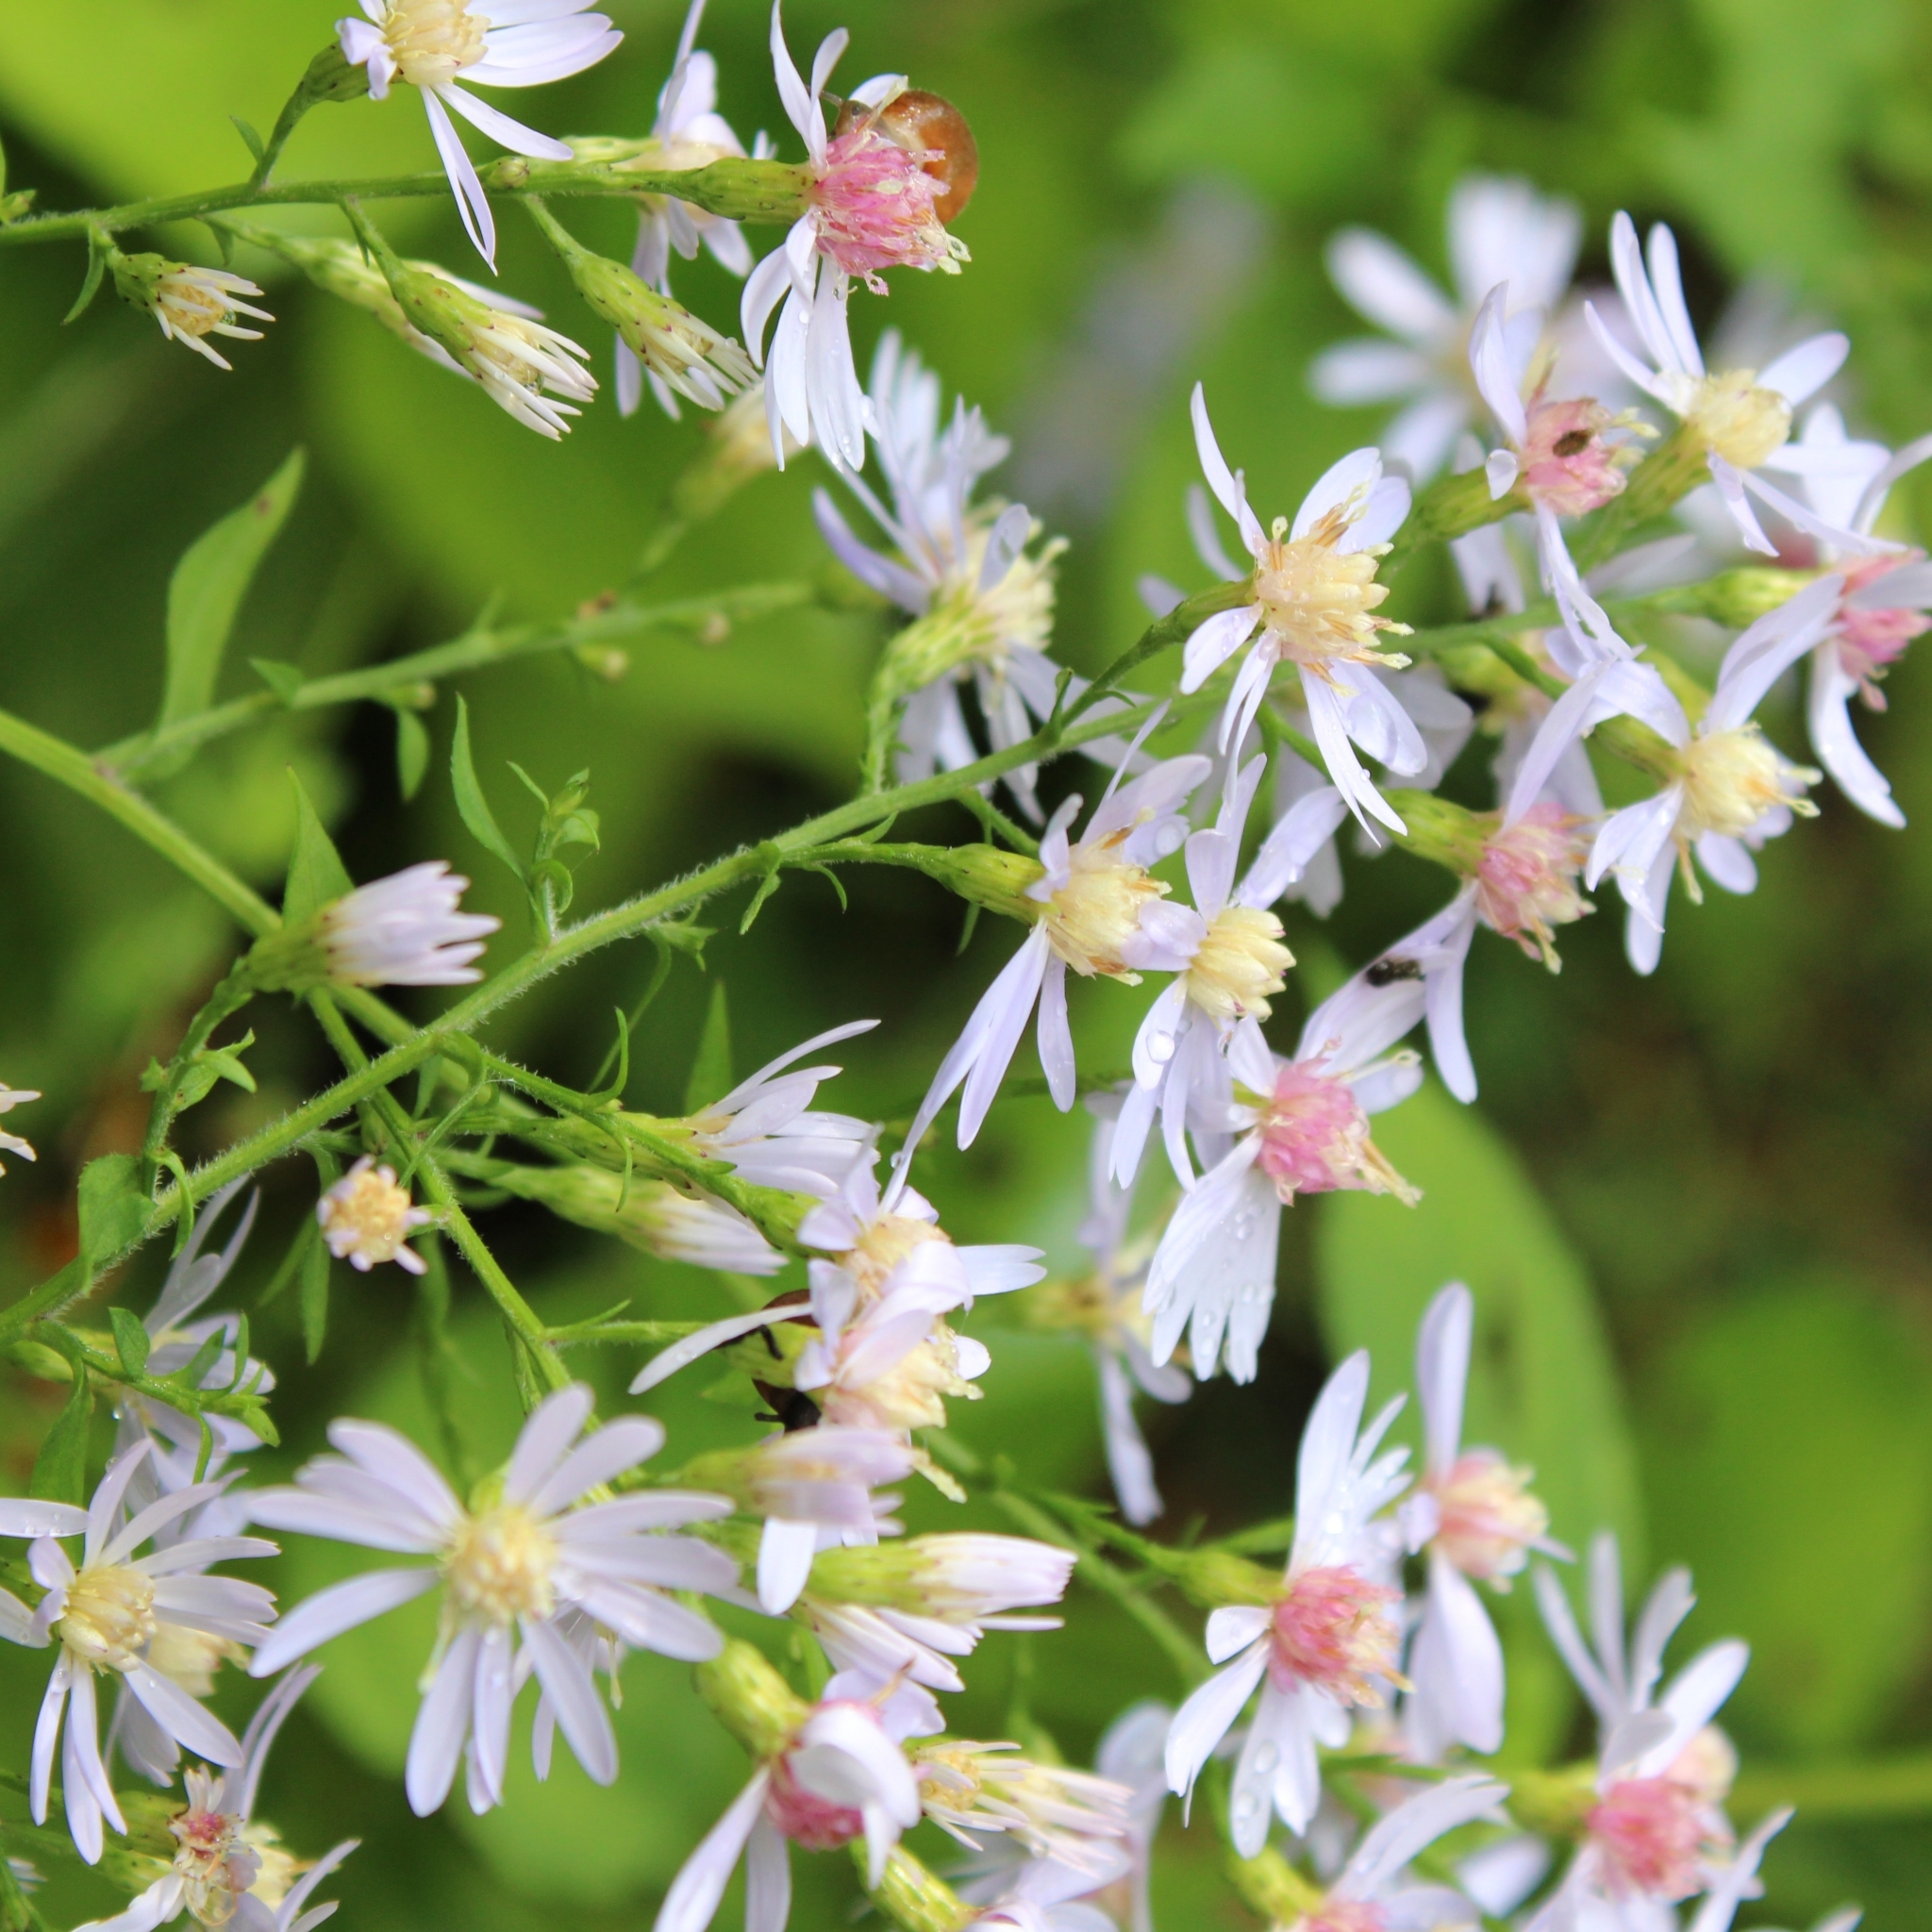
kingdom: Plantae
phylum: Tracheophyta
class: Magnoliopsida
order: Asterales
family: Asteraceae
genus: Symphyotrichum
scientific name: Symphyotrichum cordifolium
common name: Beeweed
